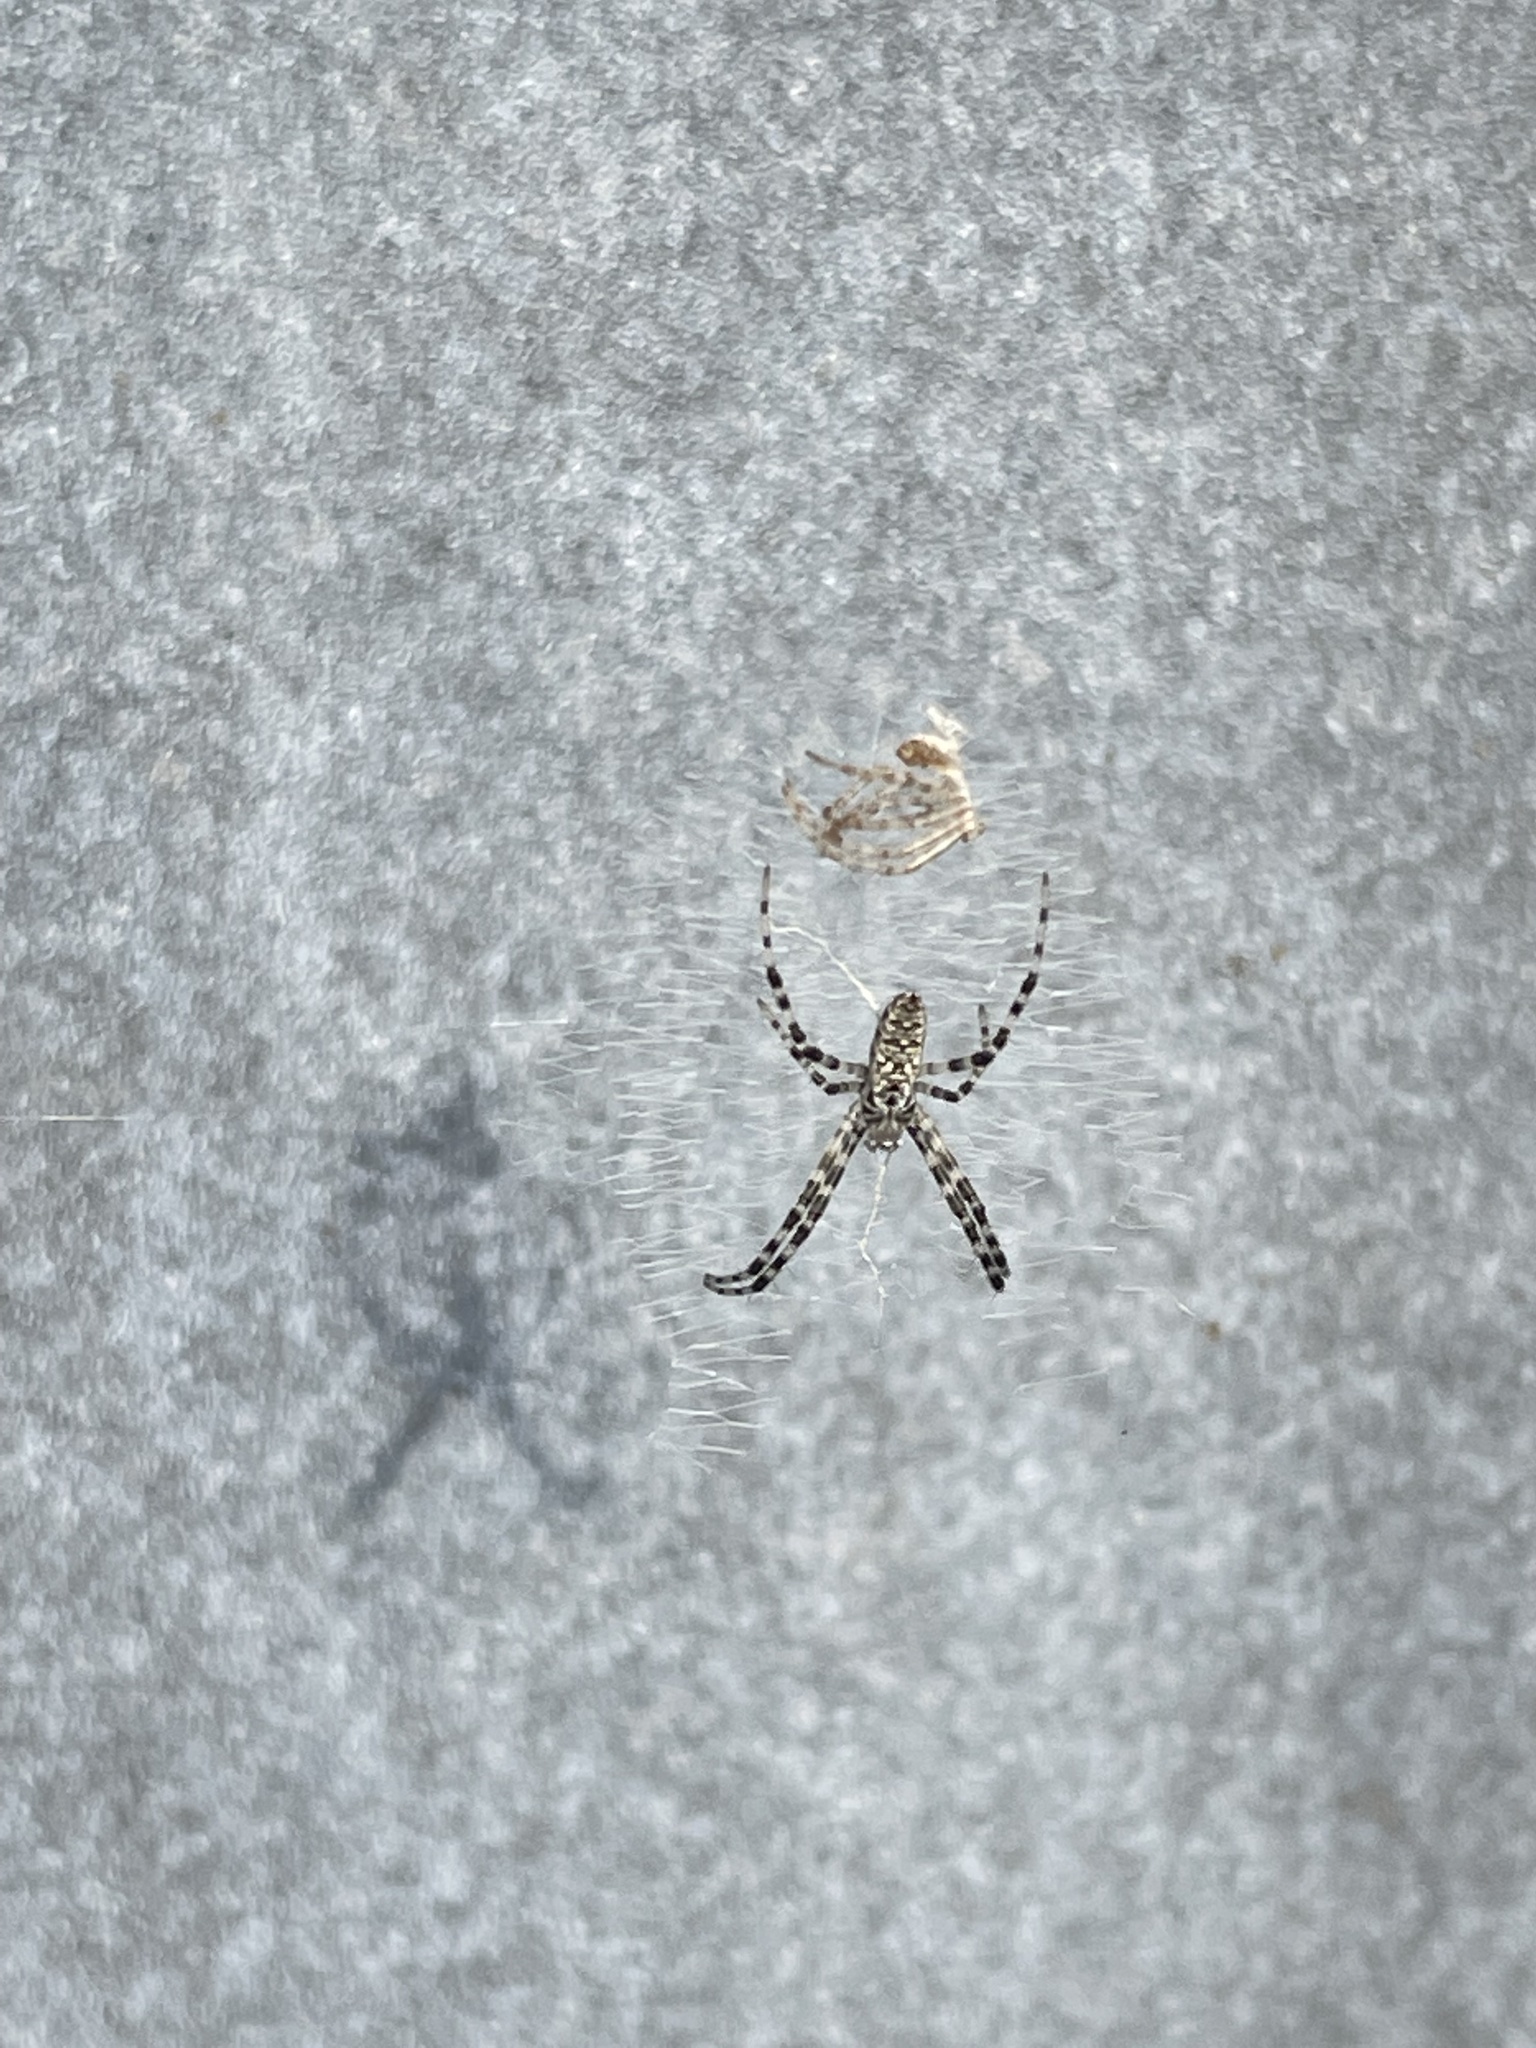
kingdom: Animalia
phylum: Arthropoda
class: Arachnida
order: Araneae
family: Araneidae
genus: Argiope
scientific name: Argiope aurantia
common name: Orb weavers
